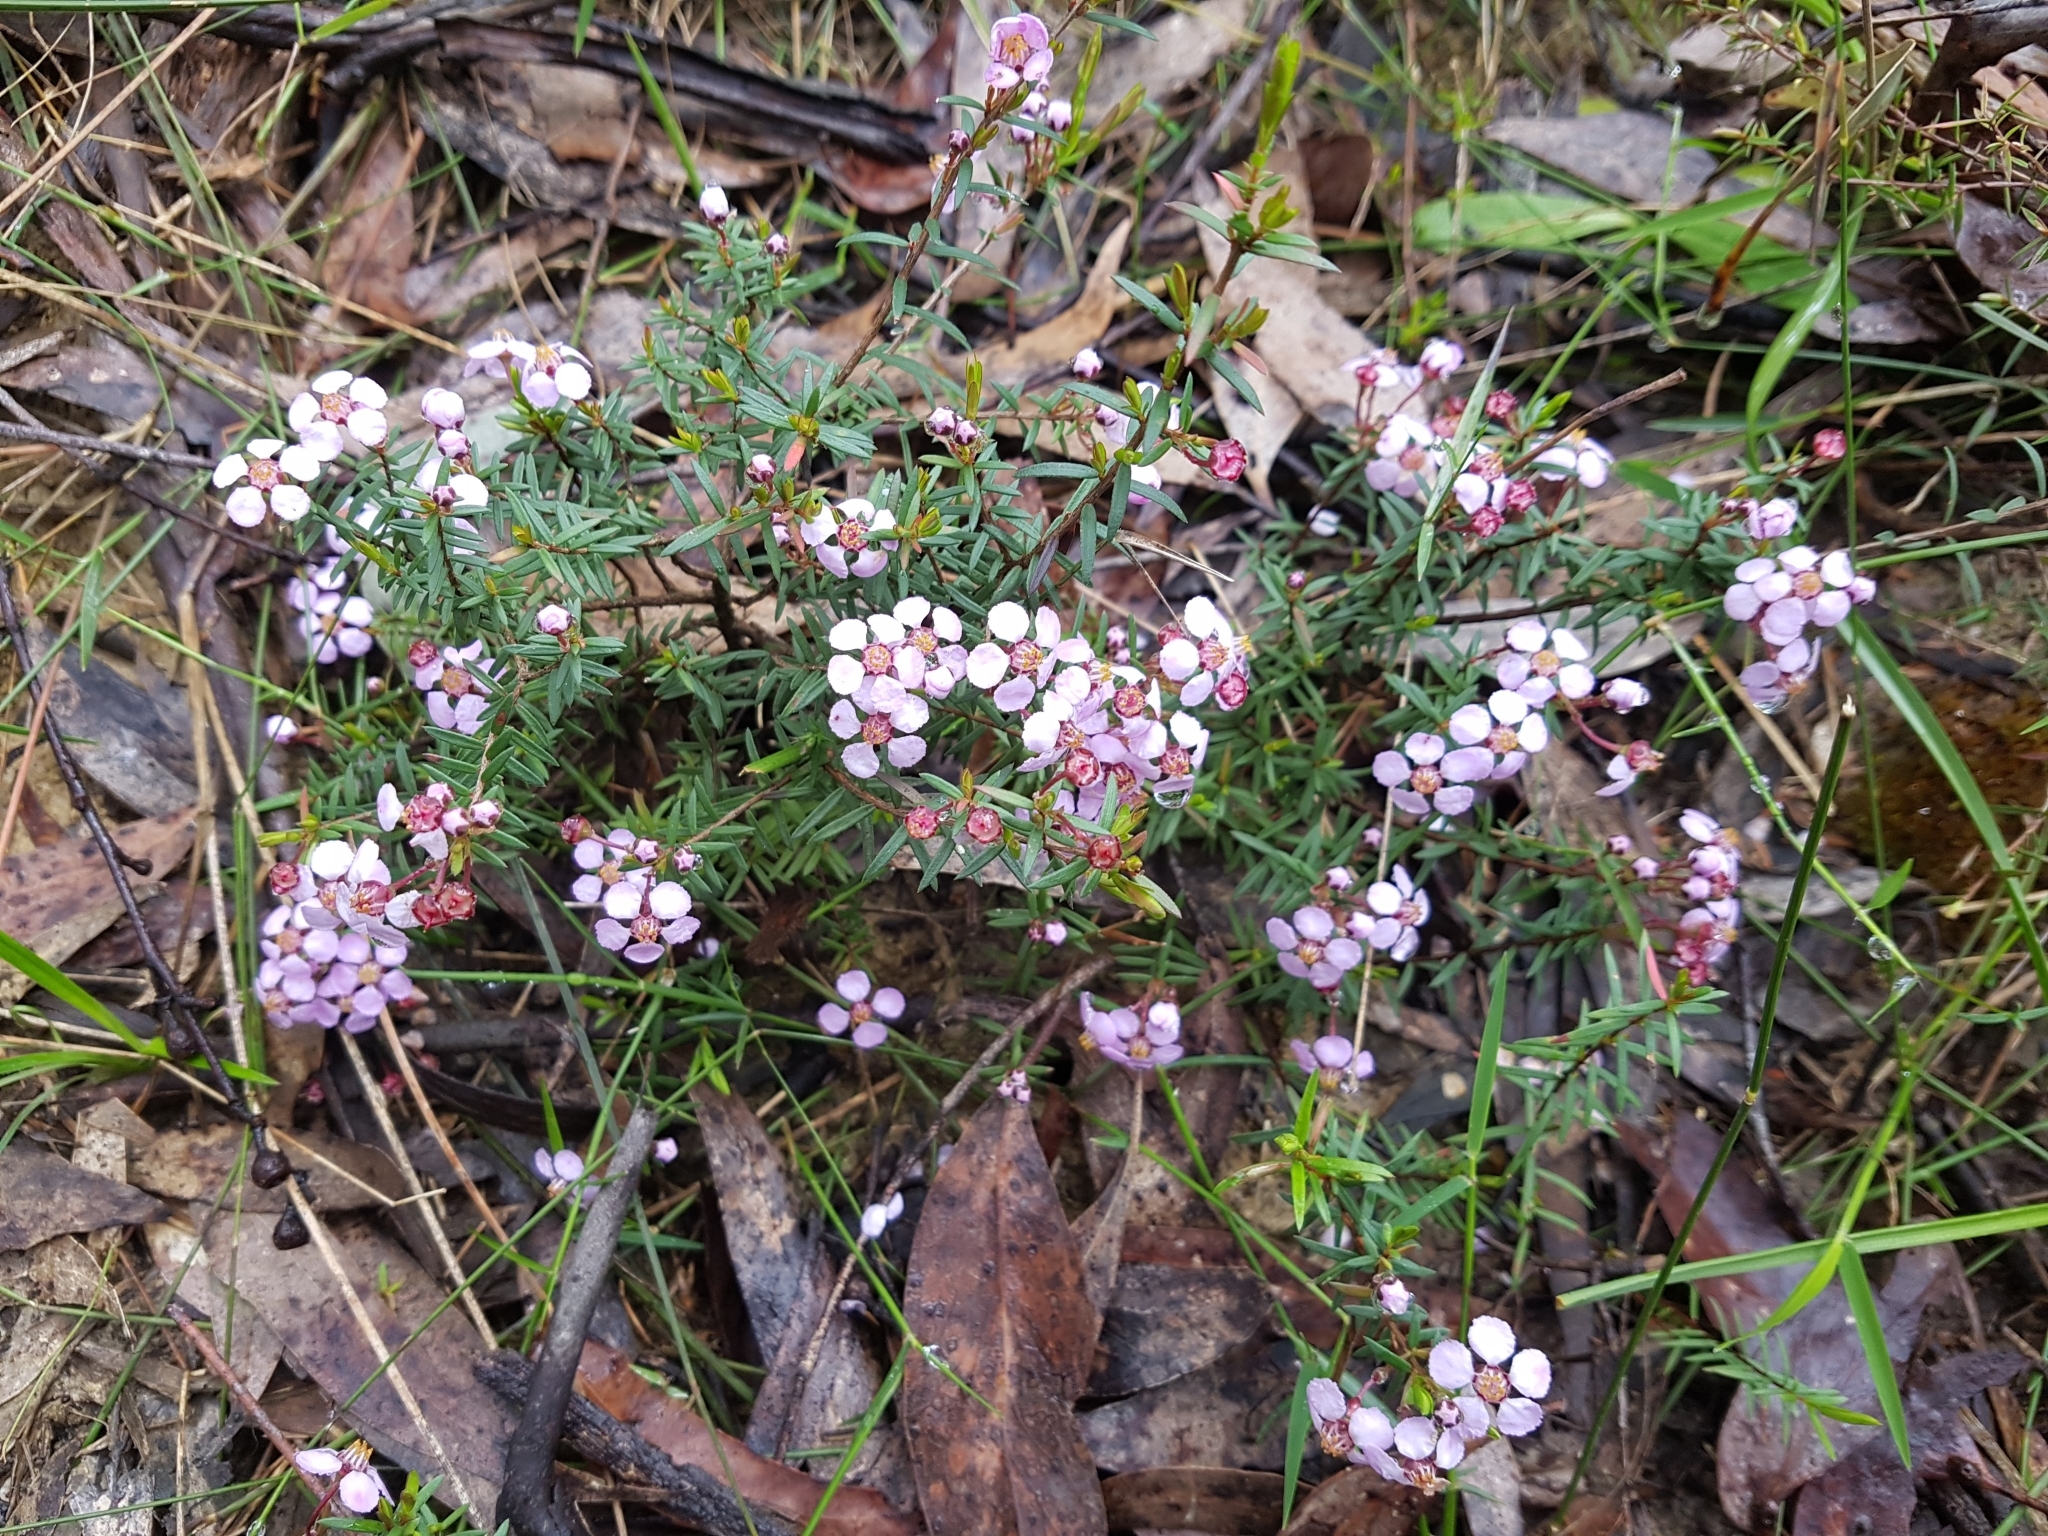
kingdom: Plantae
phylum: Tracheophyta
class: Magnoliopsida
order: Myrtales
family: Myrtaceae
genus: Euryomyrtus
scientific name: Euryomyrtus ramosissima
